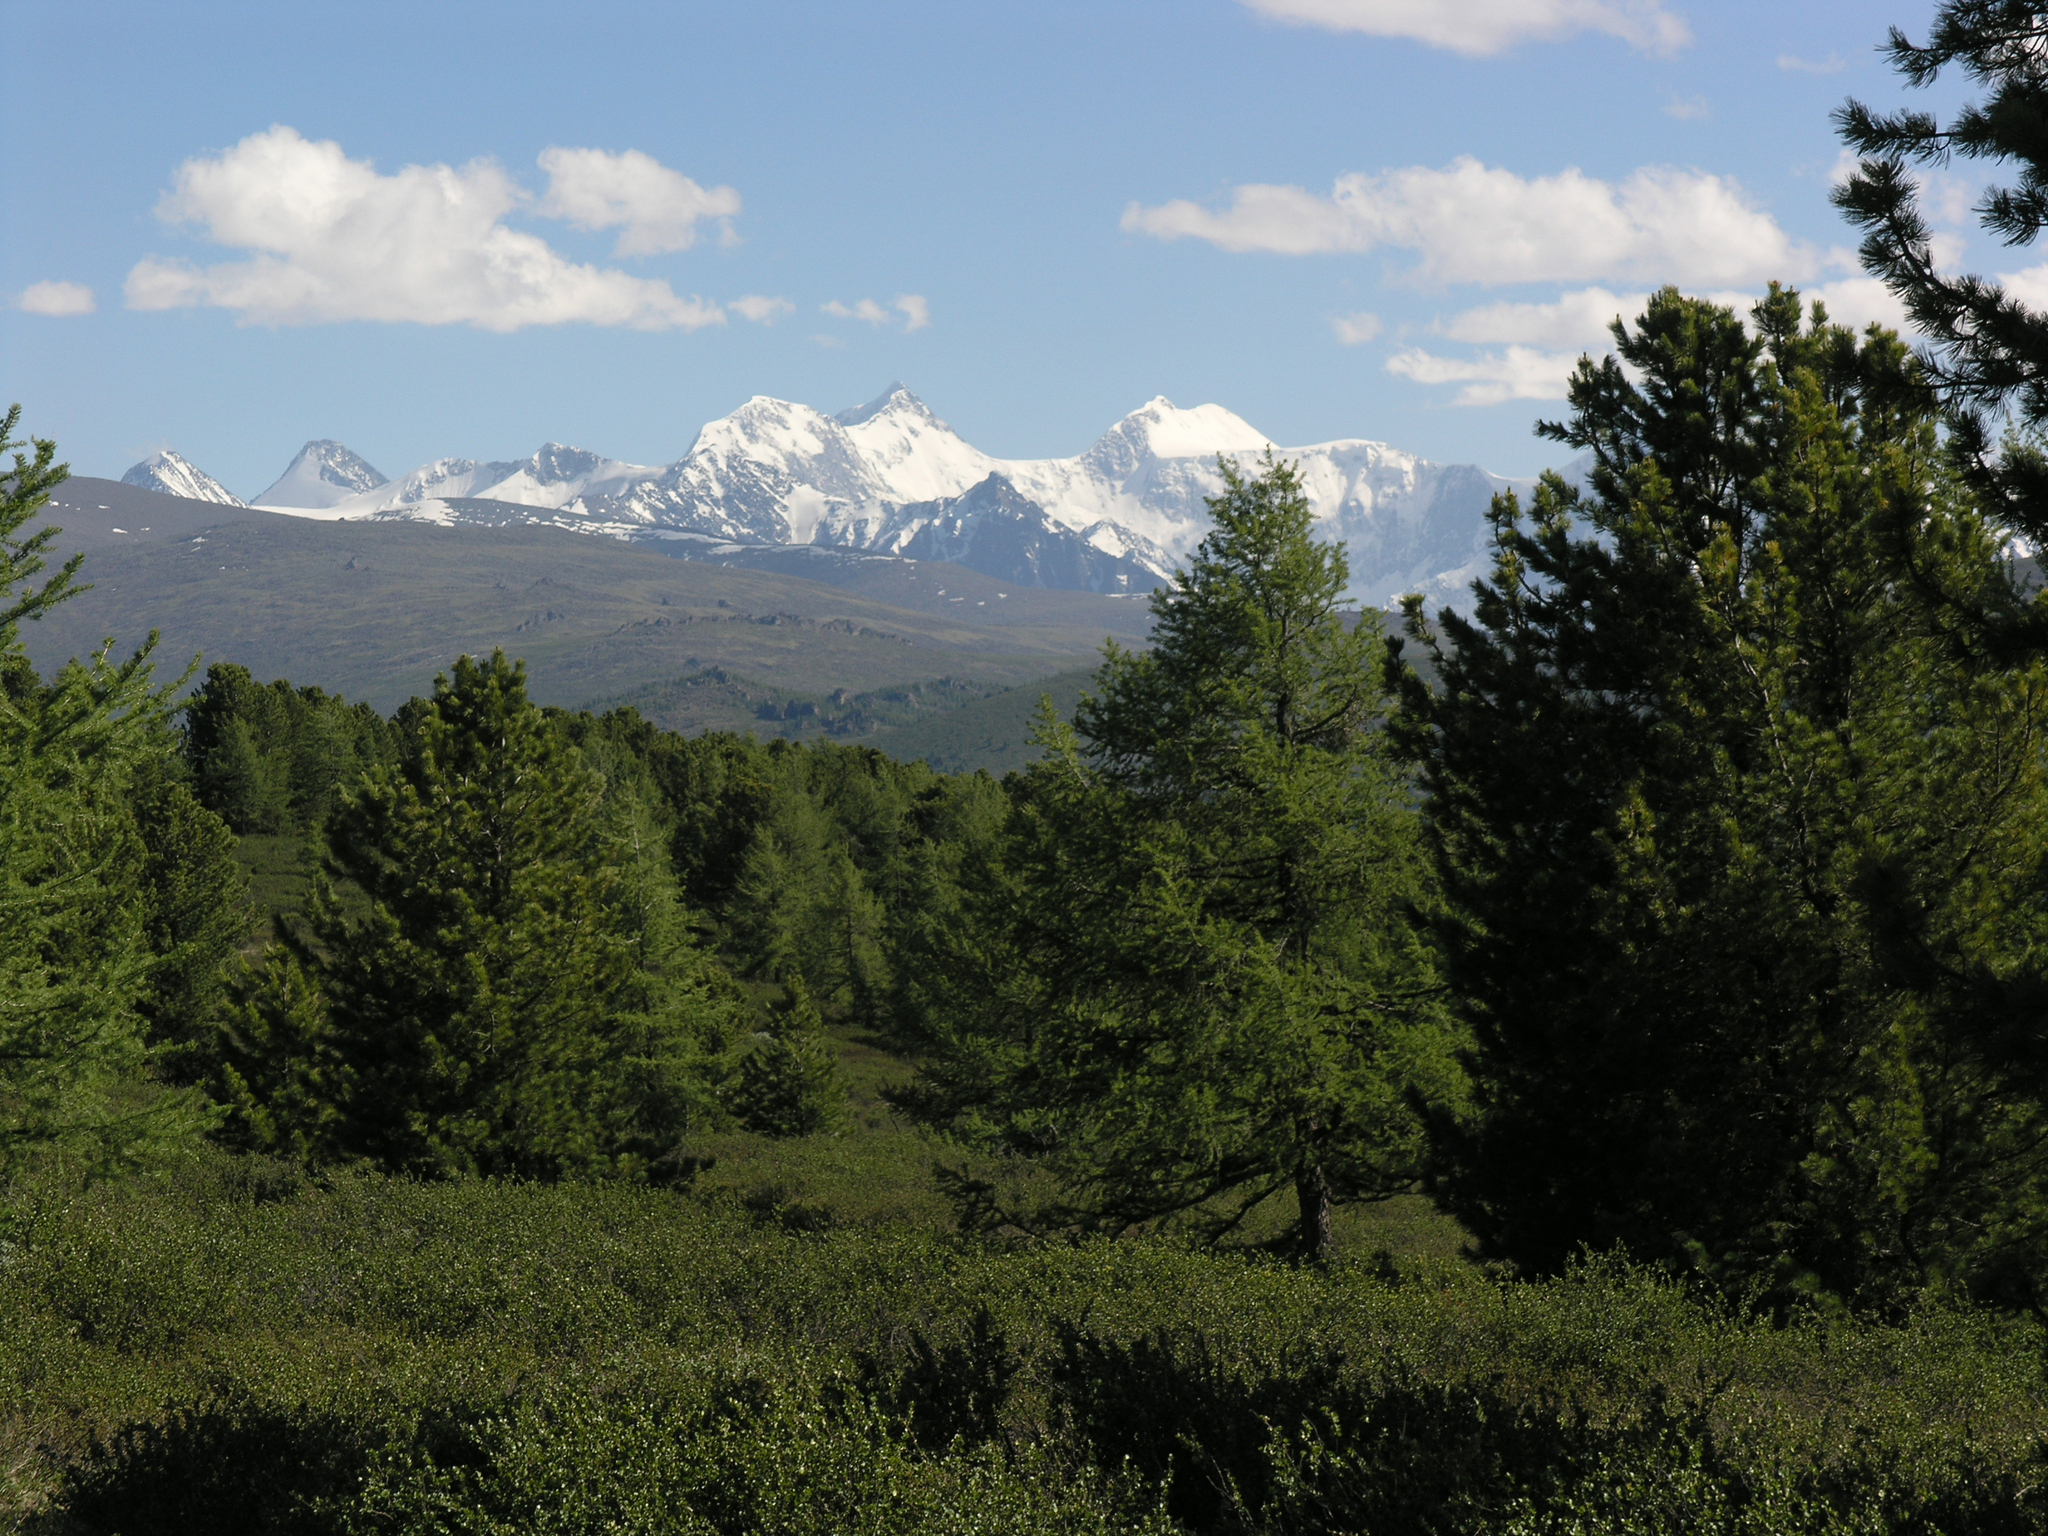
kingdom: Plantae
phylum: Tracheophyta
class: Pinopsida
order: Pinales
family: Pinaceae
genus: Pinus
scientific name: Pinus sibirica
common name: Siberian pine
